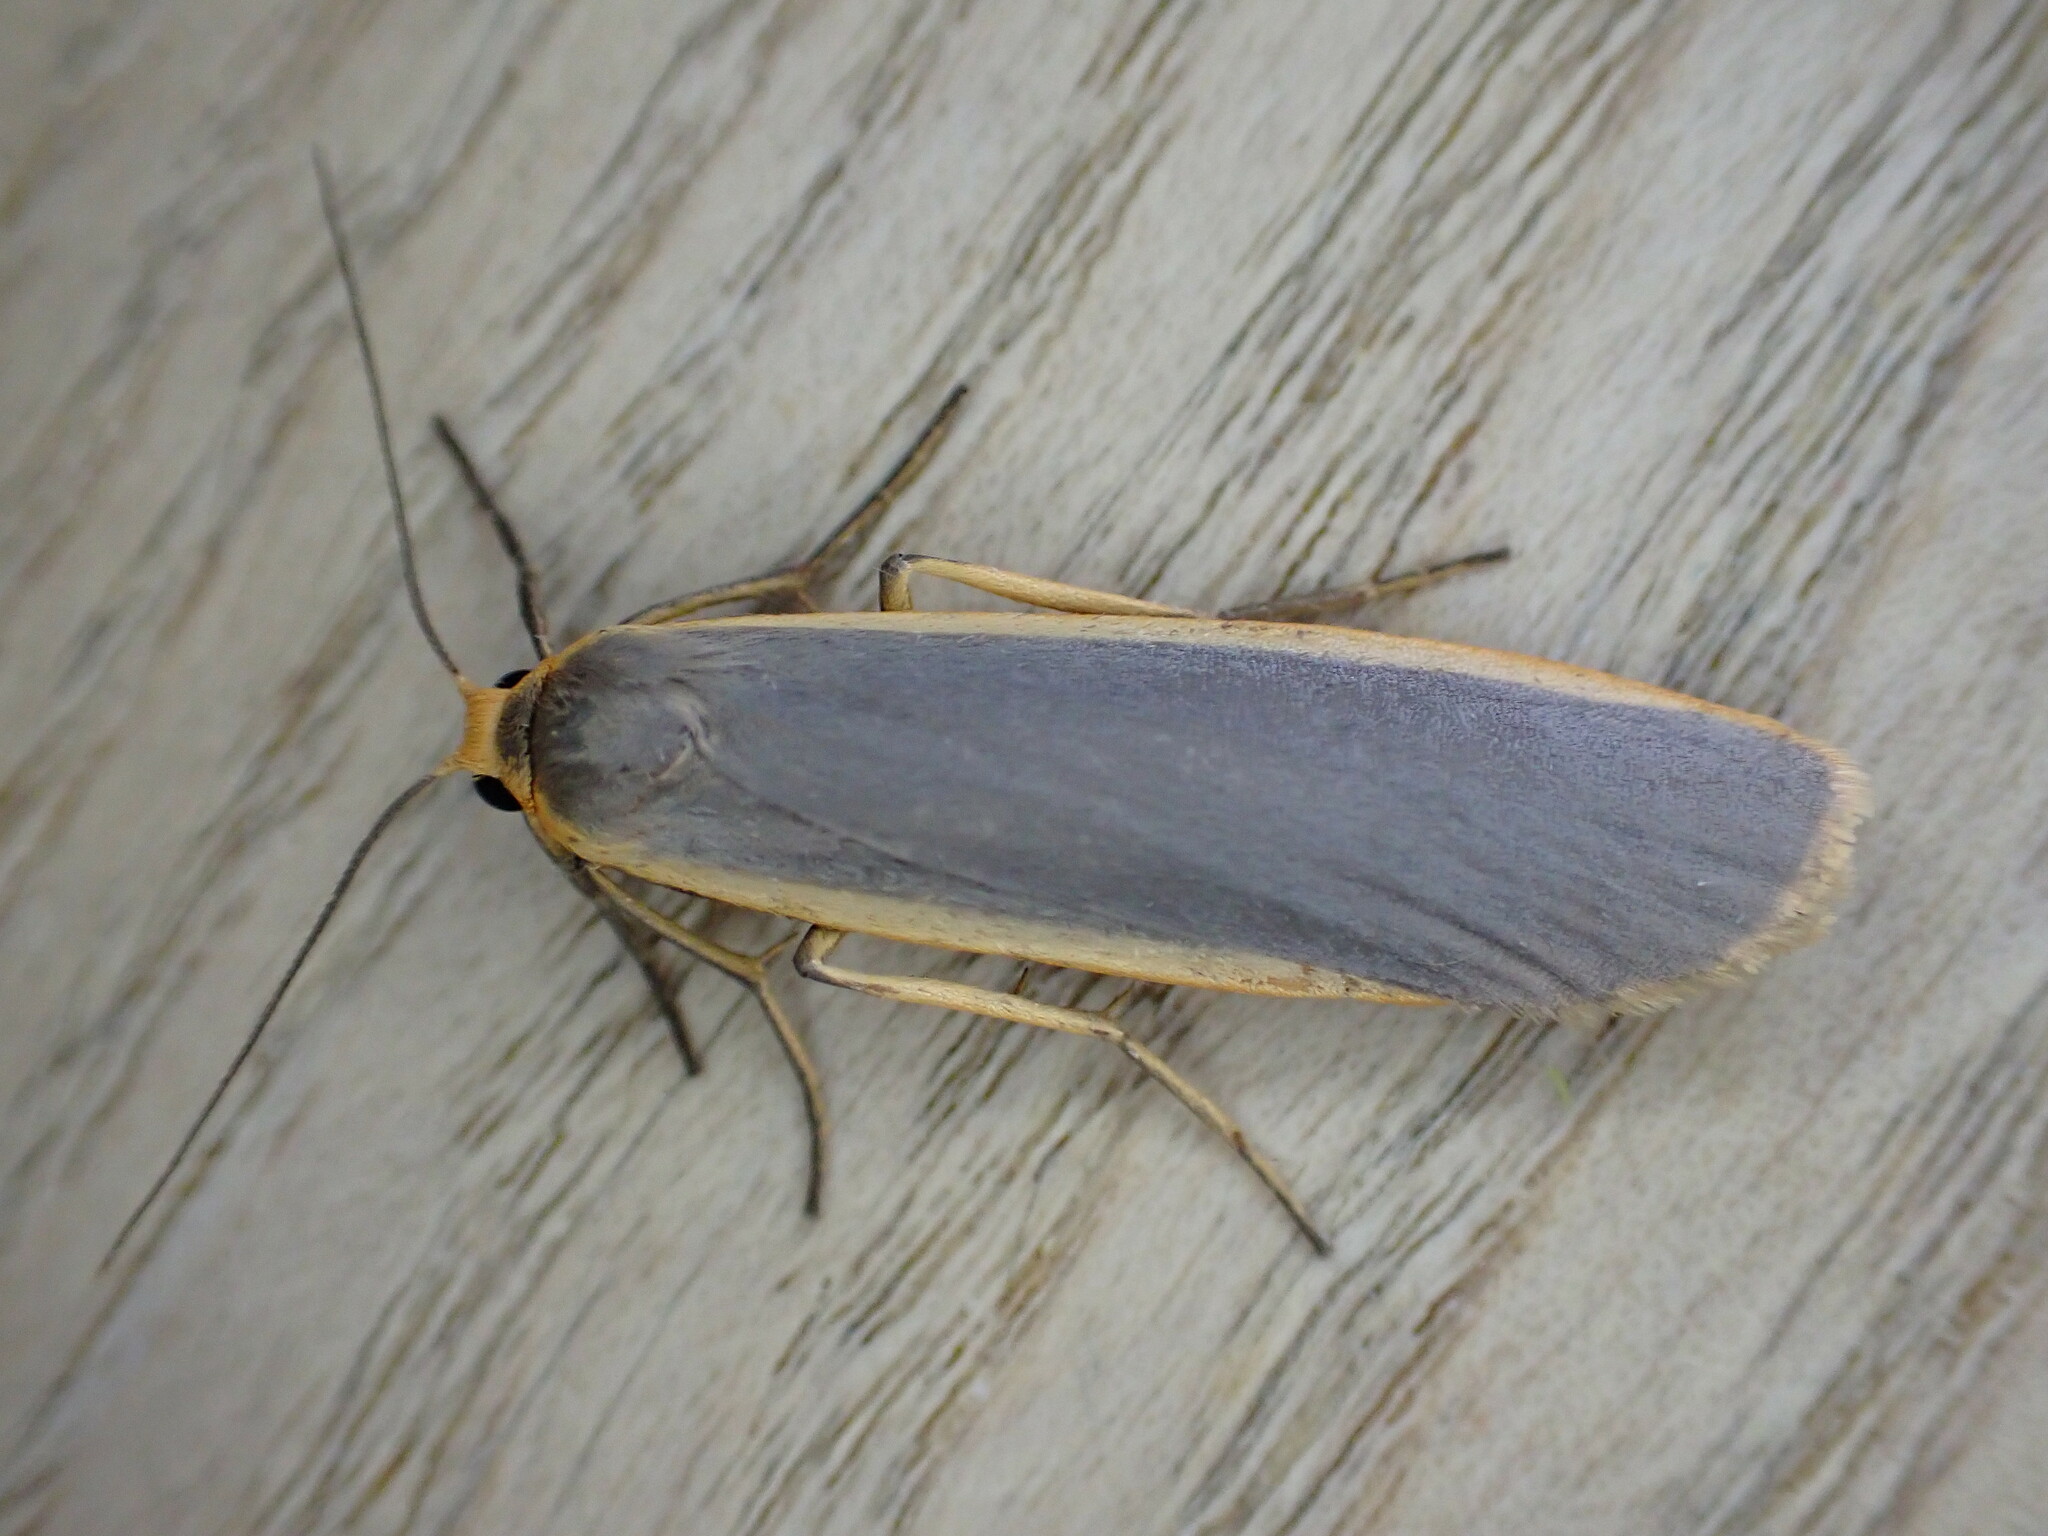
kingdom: Animalia
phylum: Arthropoda
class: Insecta
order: Lepidoptera
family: Erebidae
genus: Nyea
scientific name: Nyea lurideola
